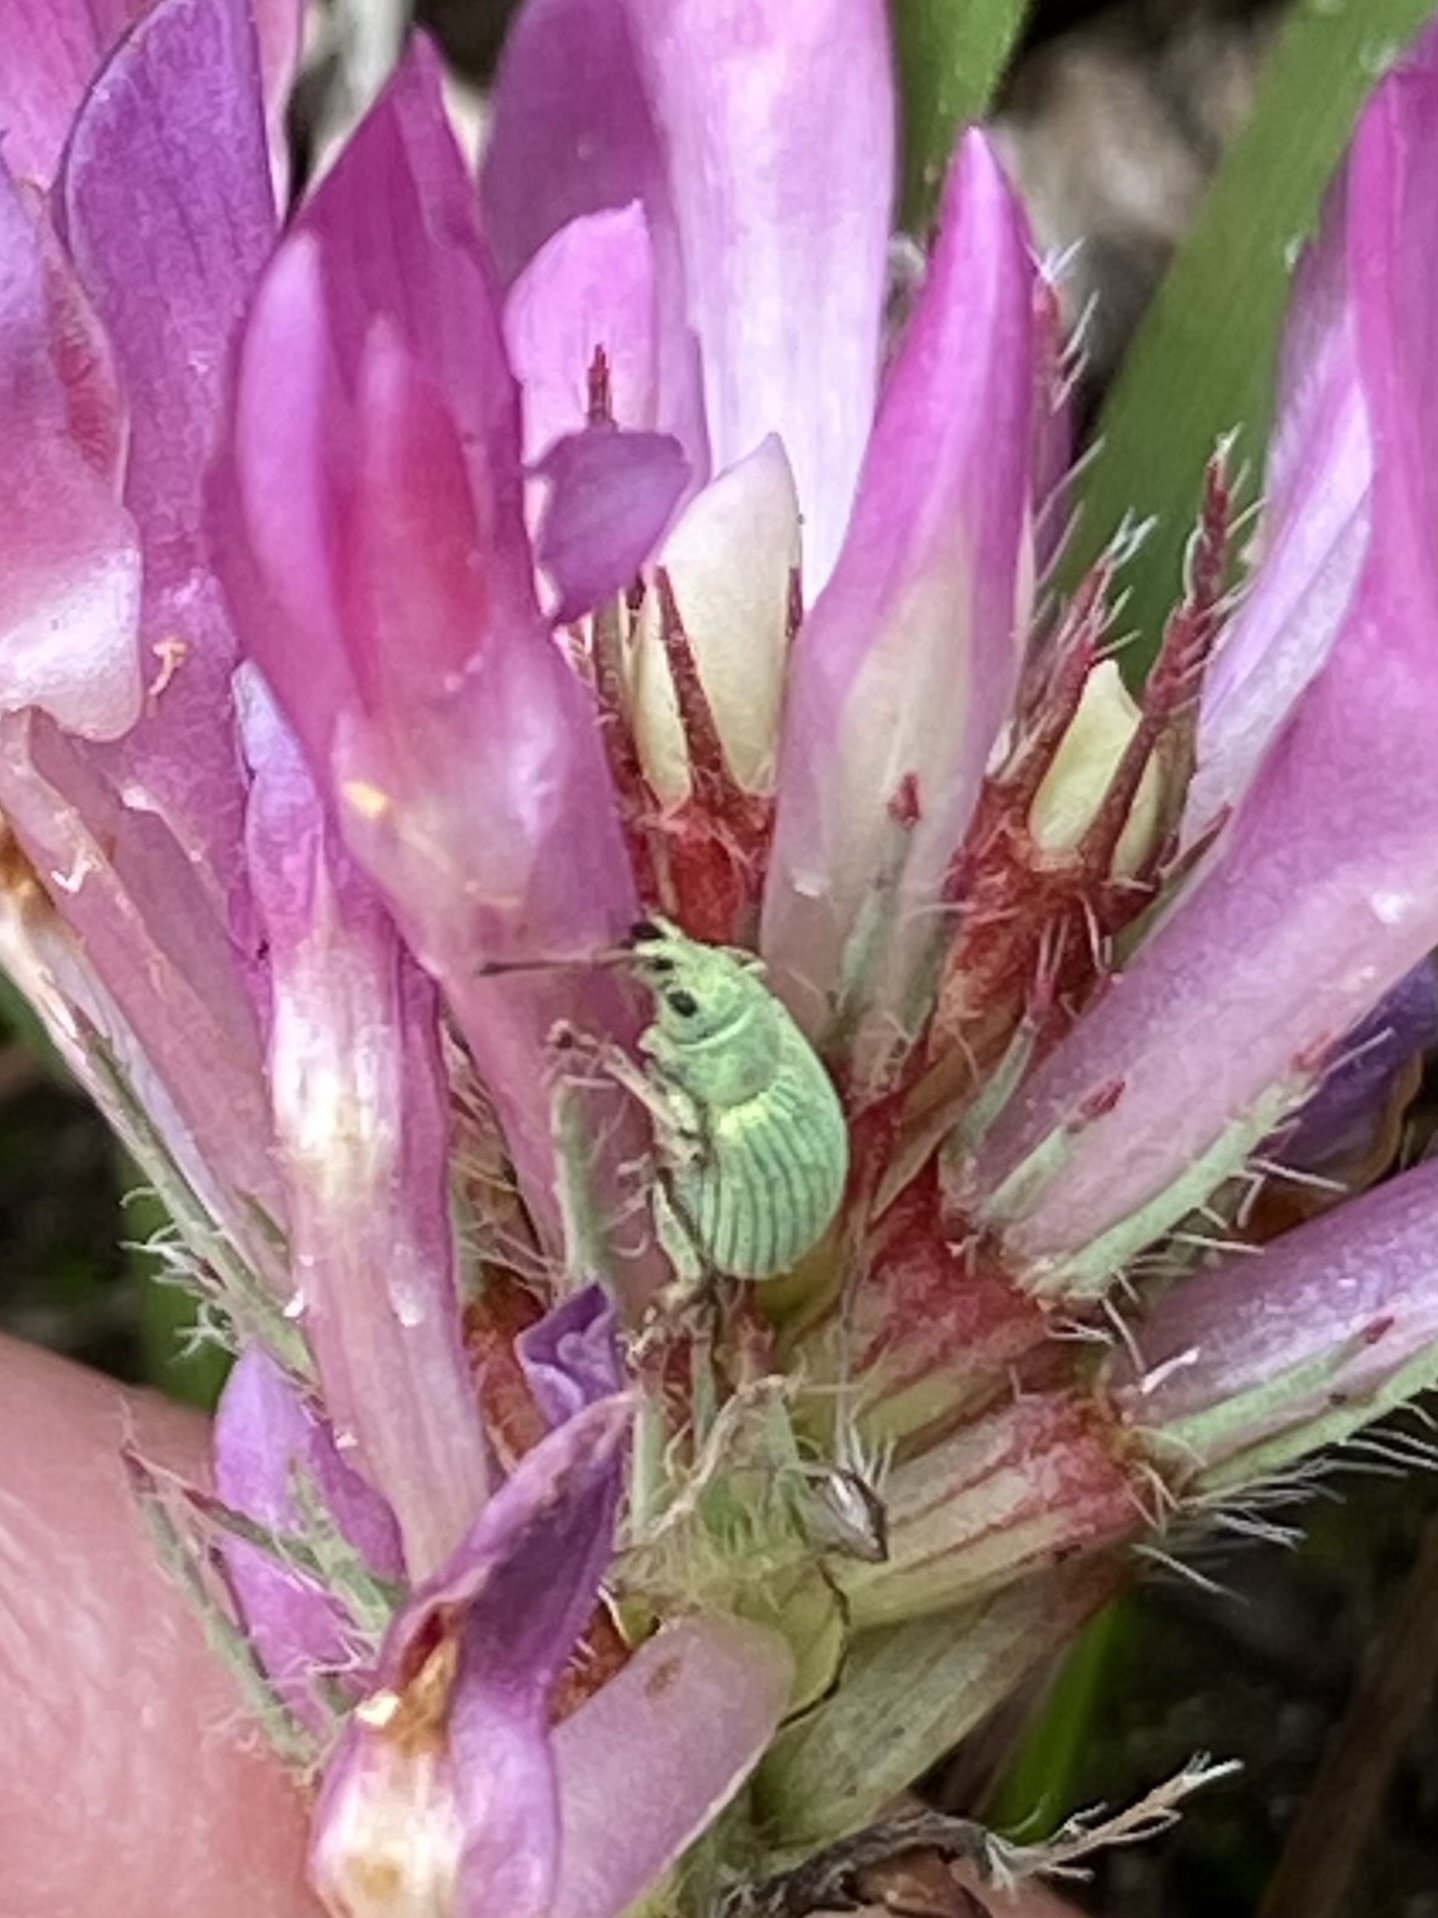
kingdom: Animalia
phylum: Arthropoda
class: Insecta
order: Coleoptera
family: Curculionidae
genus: Phyllobius
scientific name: Phyllobius virideaeris
